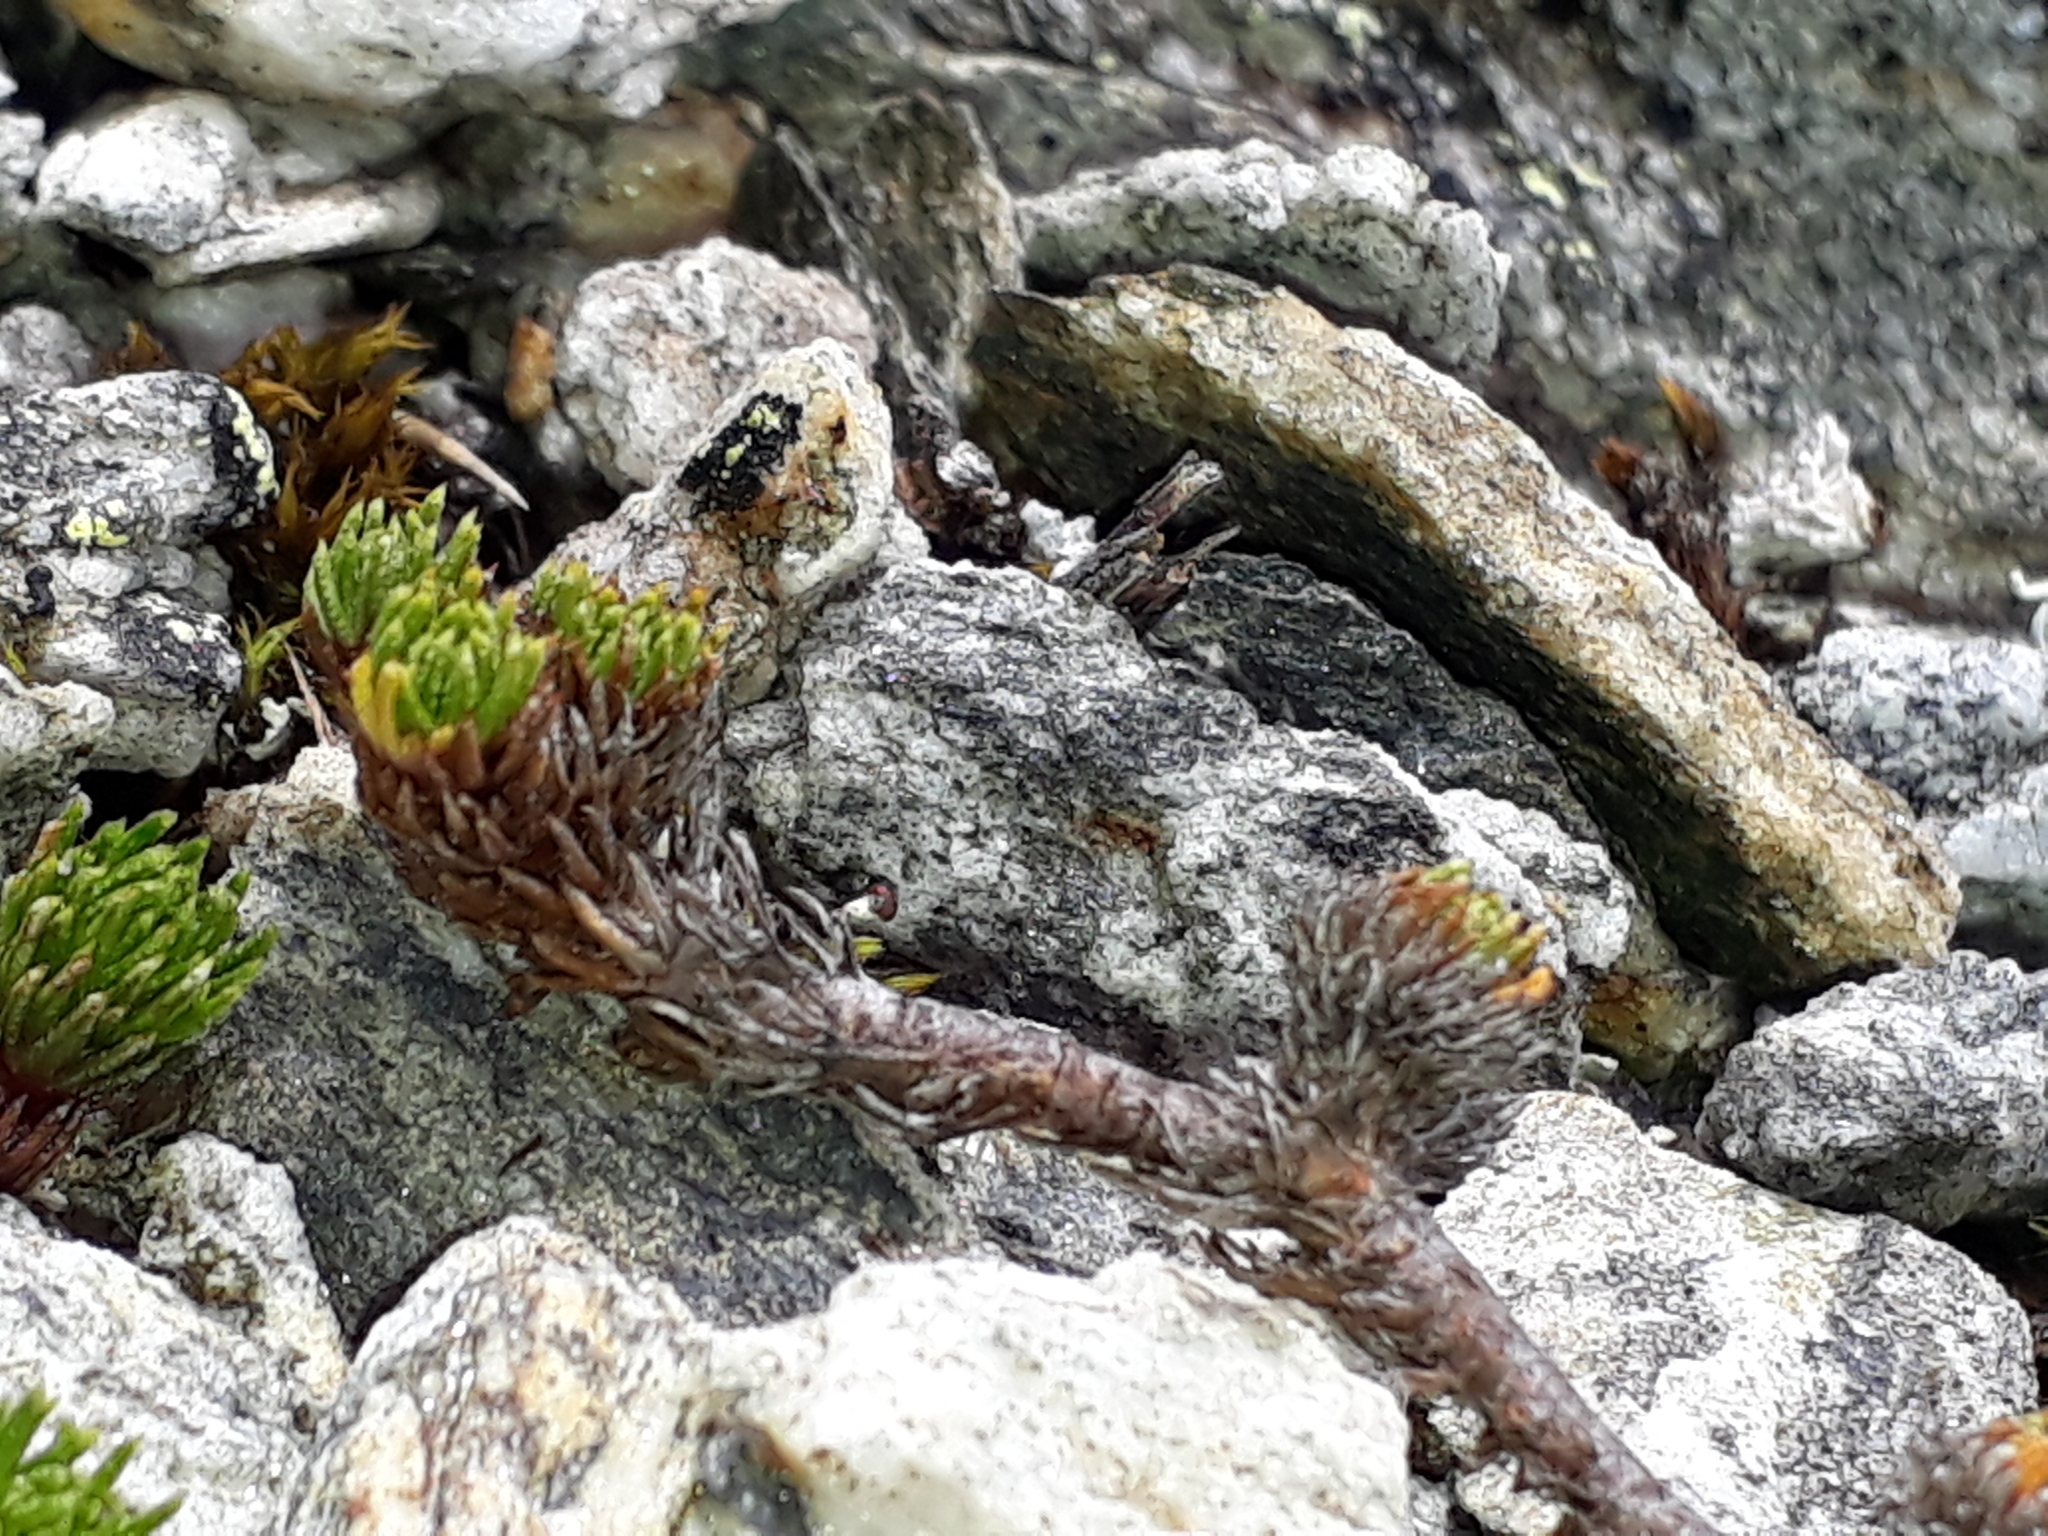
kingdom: Plantae
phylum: Tracheophyta
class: Magnoliopsida
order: Asterales
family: Asteraceae
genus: Leptinella
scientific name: Leptinella goyenii
